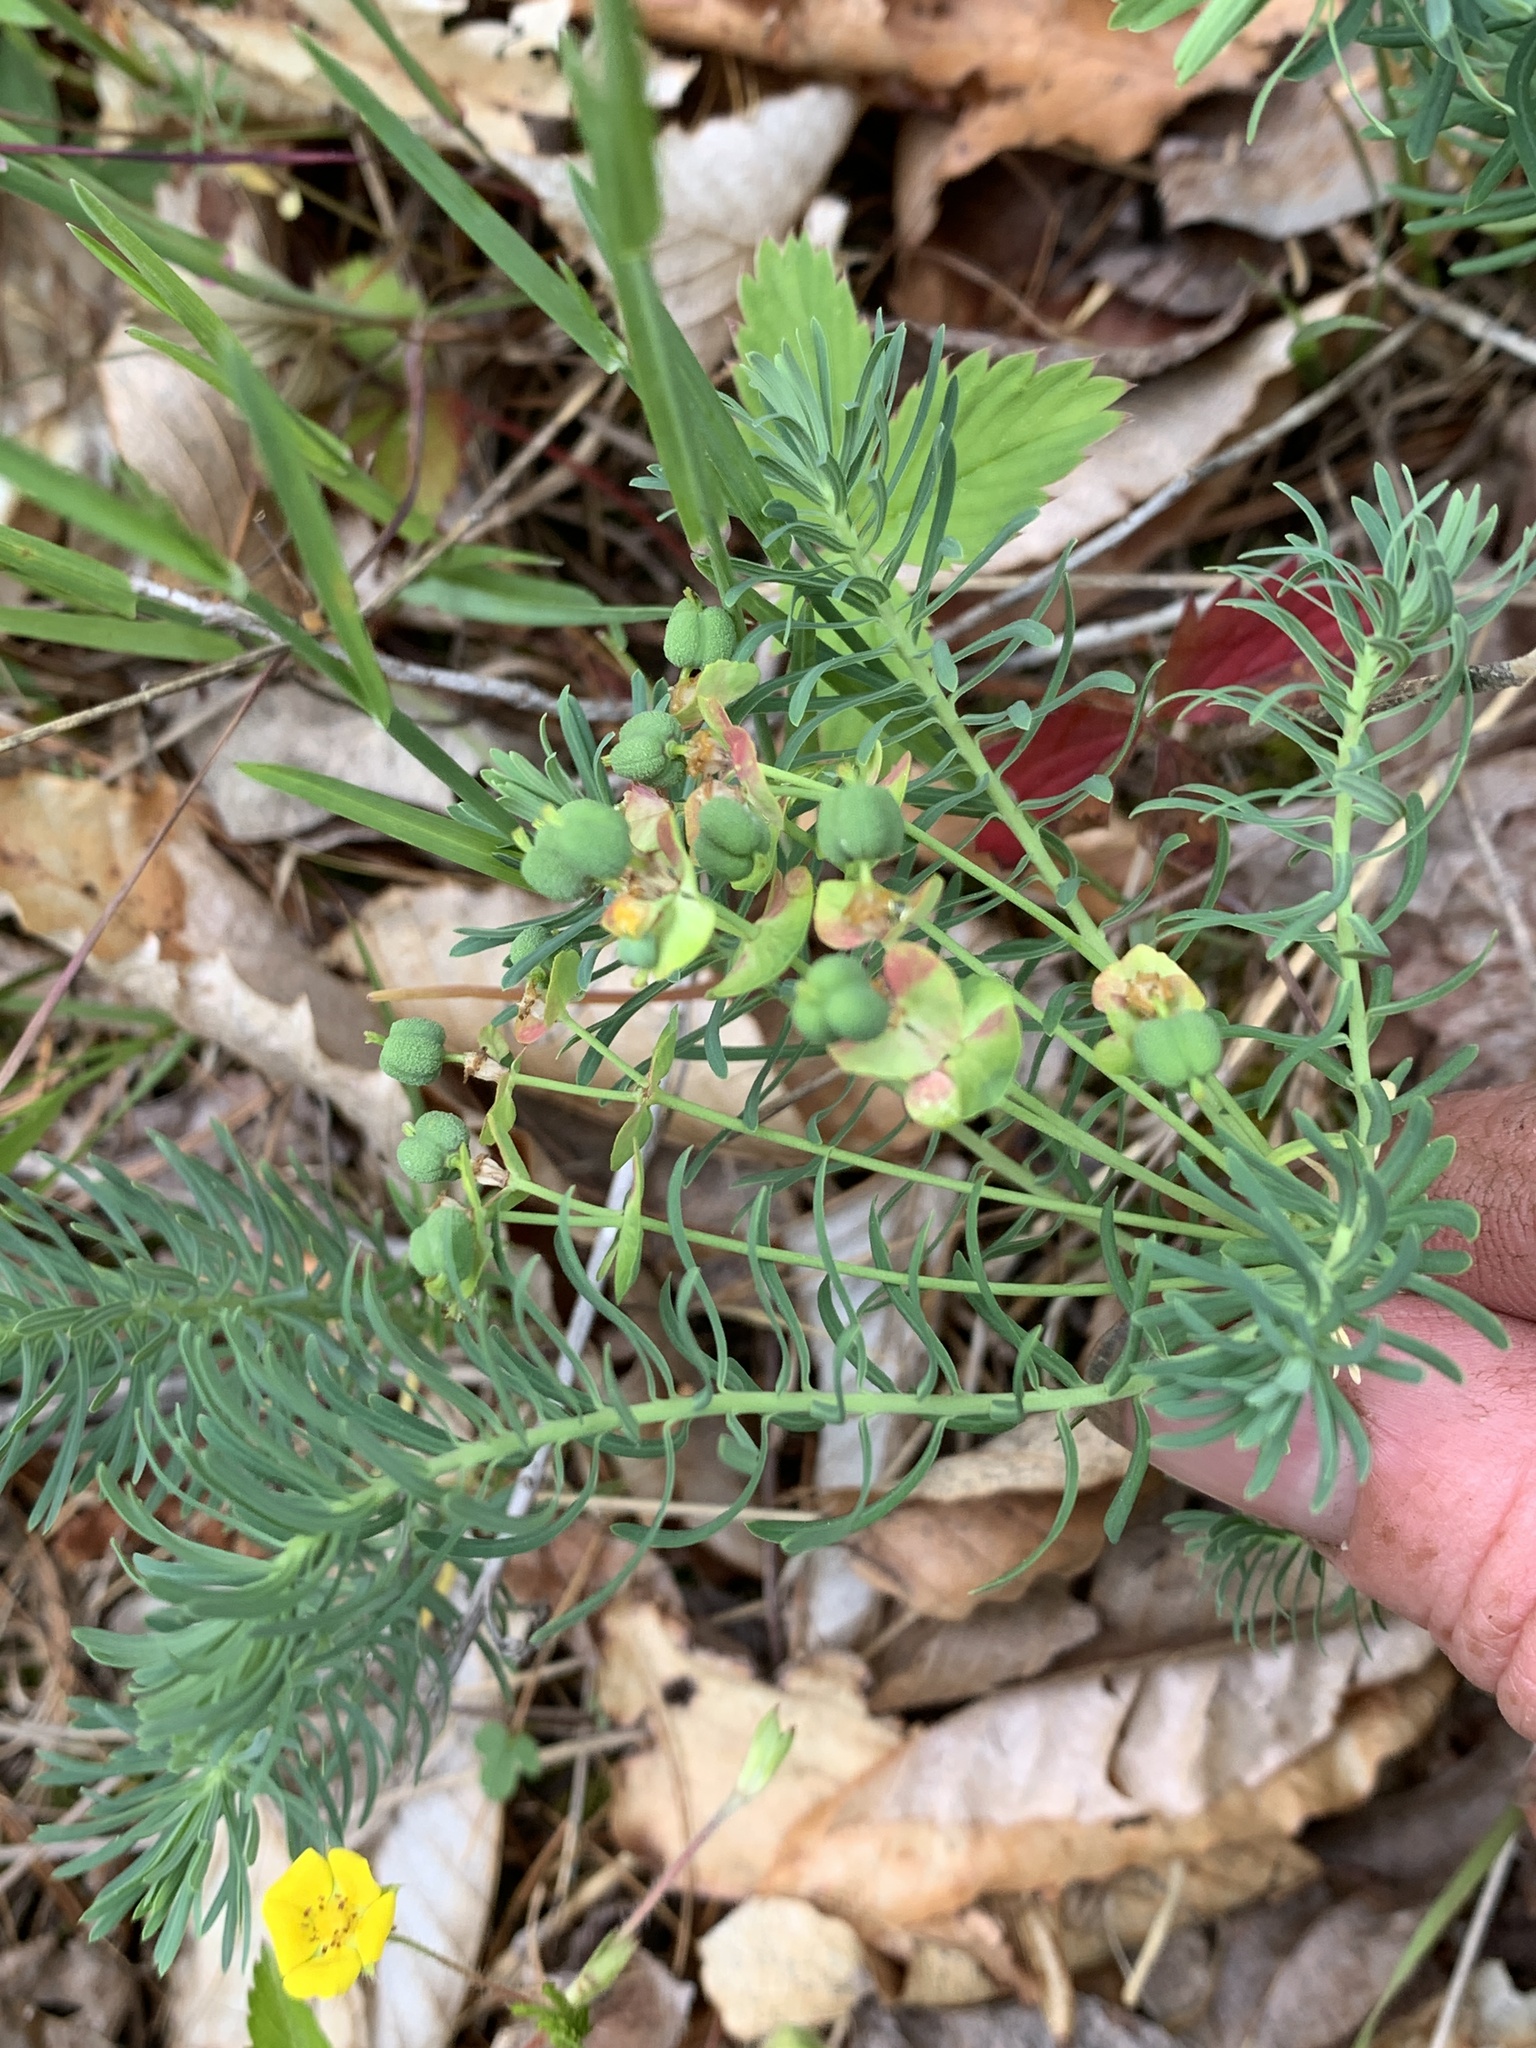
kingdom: Plantae
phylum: Tracheophyta
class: Magnoliopsida
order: Malpighiales
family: Euphorbiaceae
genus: Euphorbia
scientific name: Euphorbia cyparissias
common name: Cypress spurge
